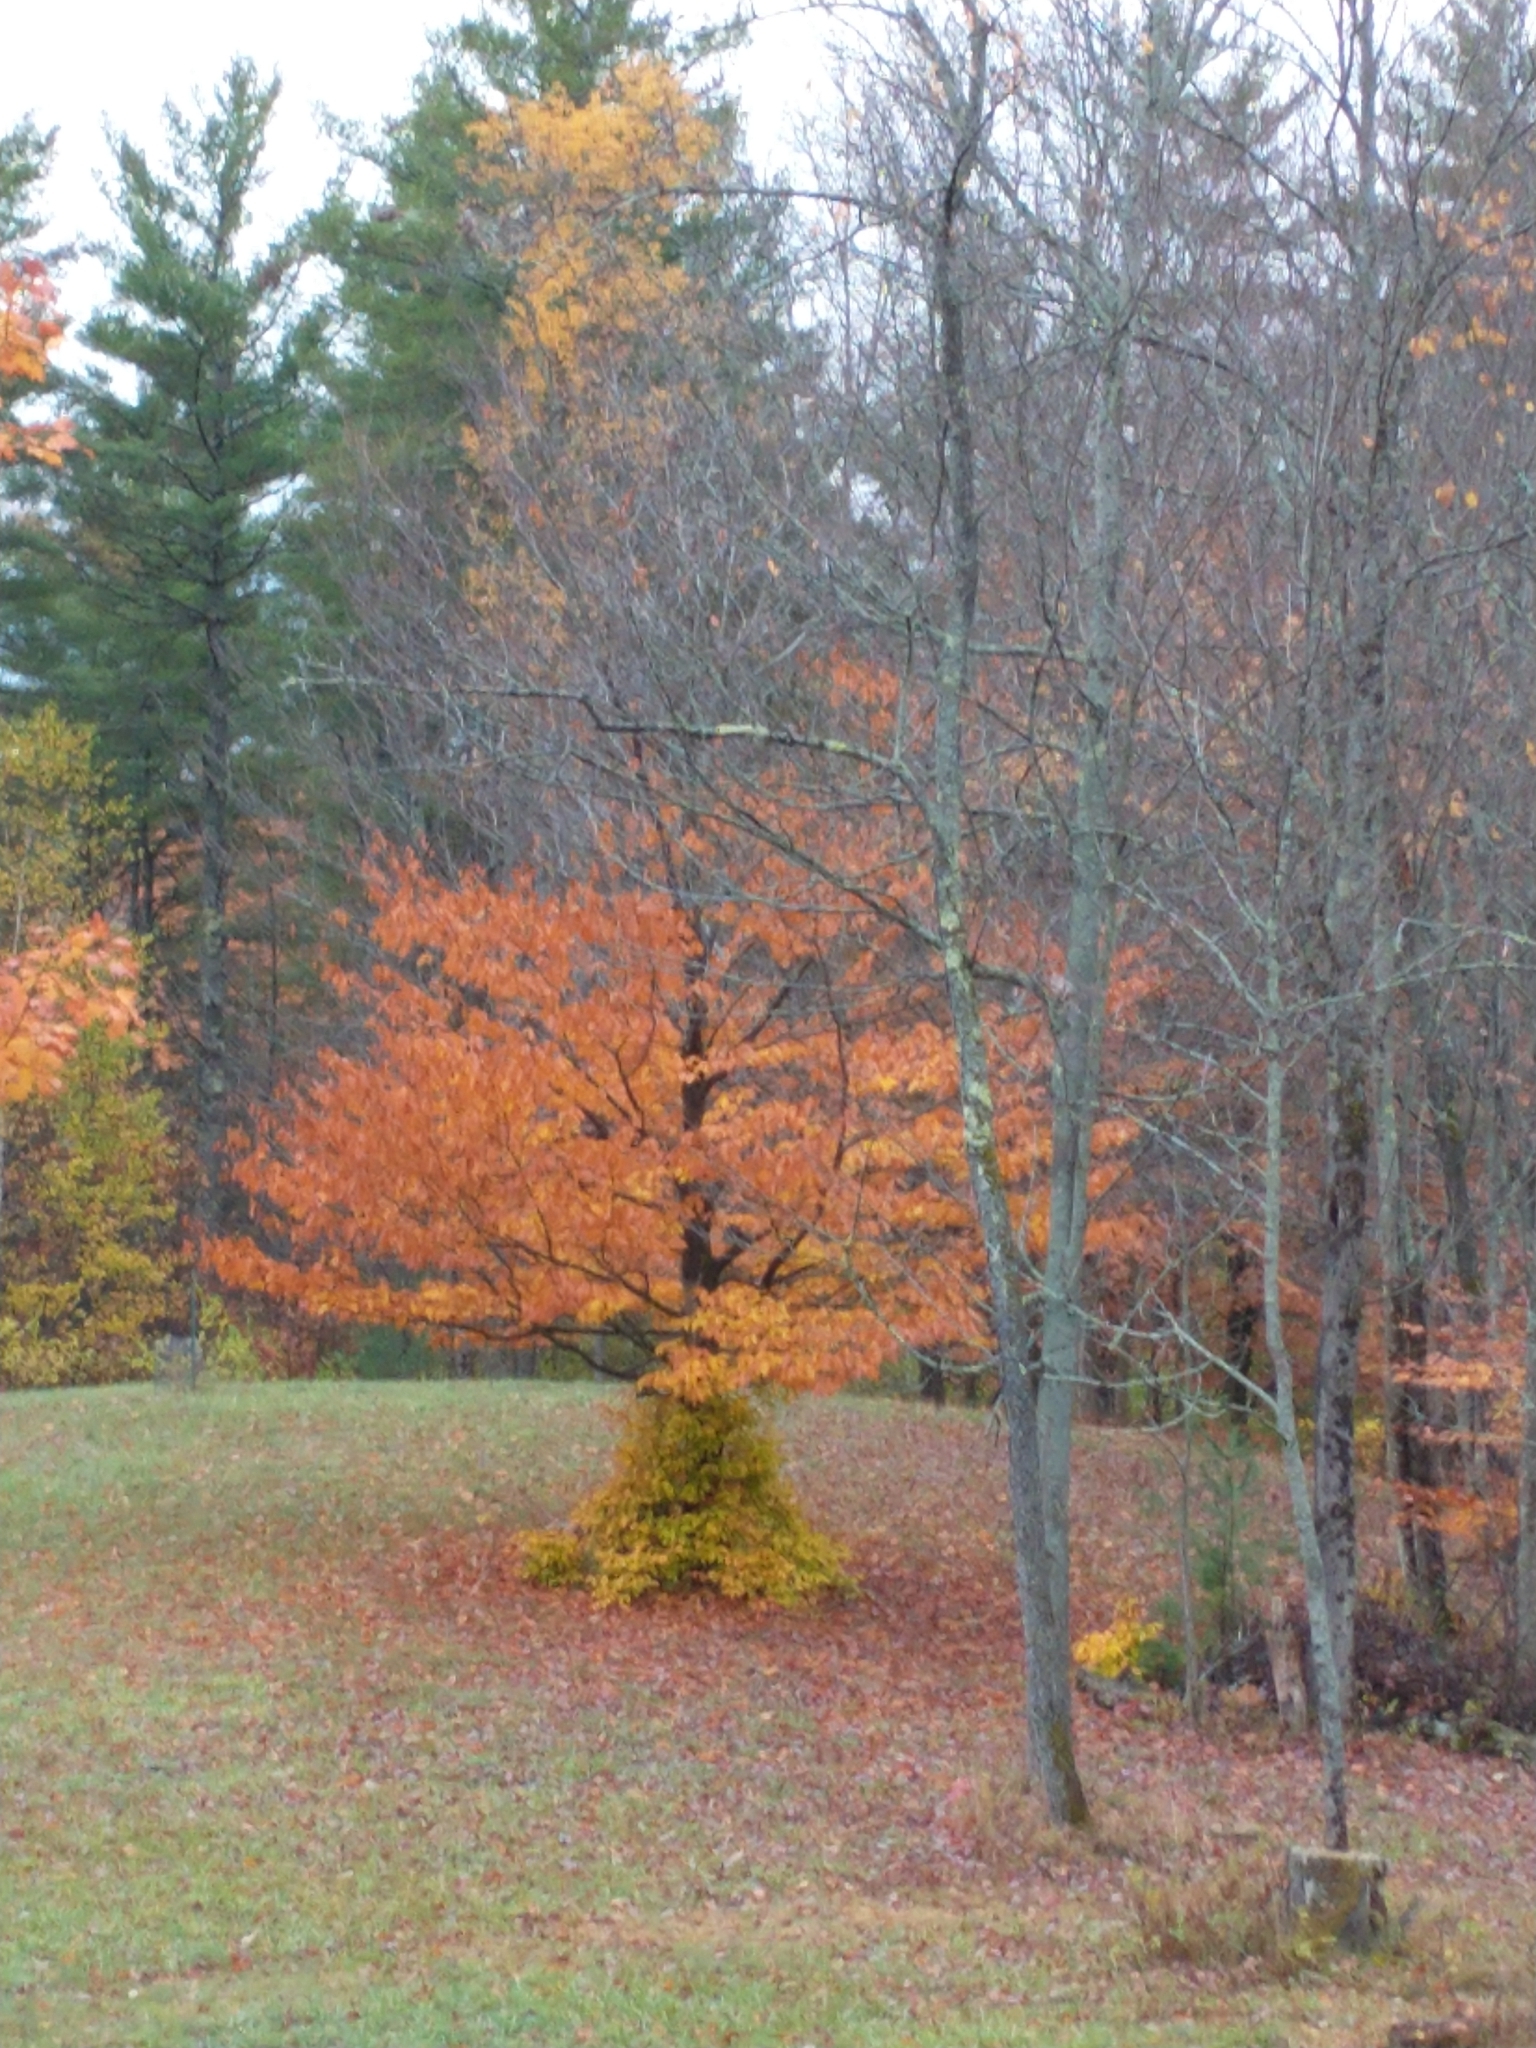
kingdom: Plantae
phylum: Tracheophyta
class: Magnoliopsida
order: Fagales
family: Fagaceae
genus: Fagus
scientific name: Fagus grandifolia
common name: American beech
